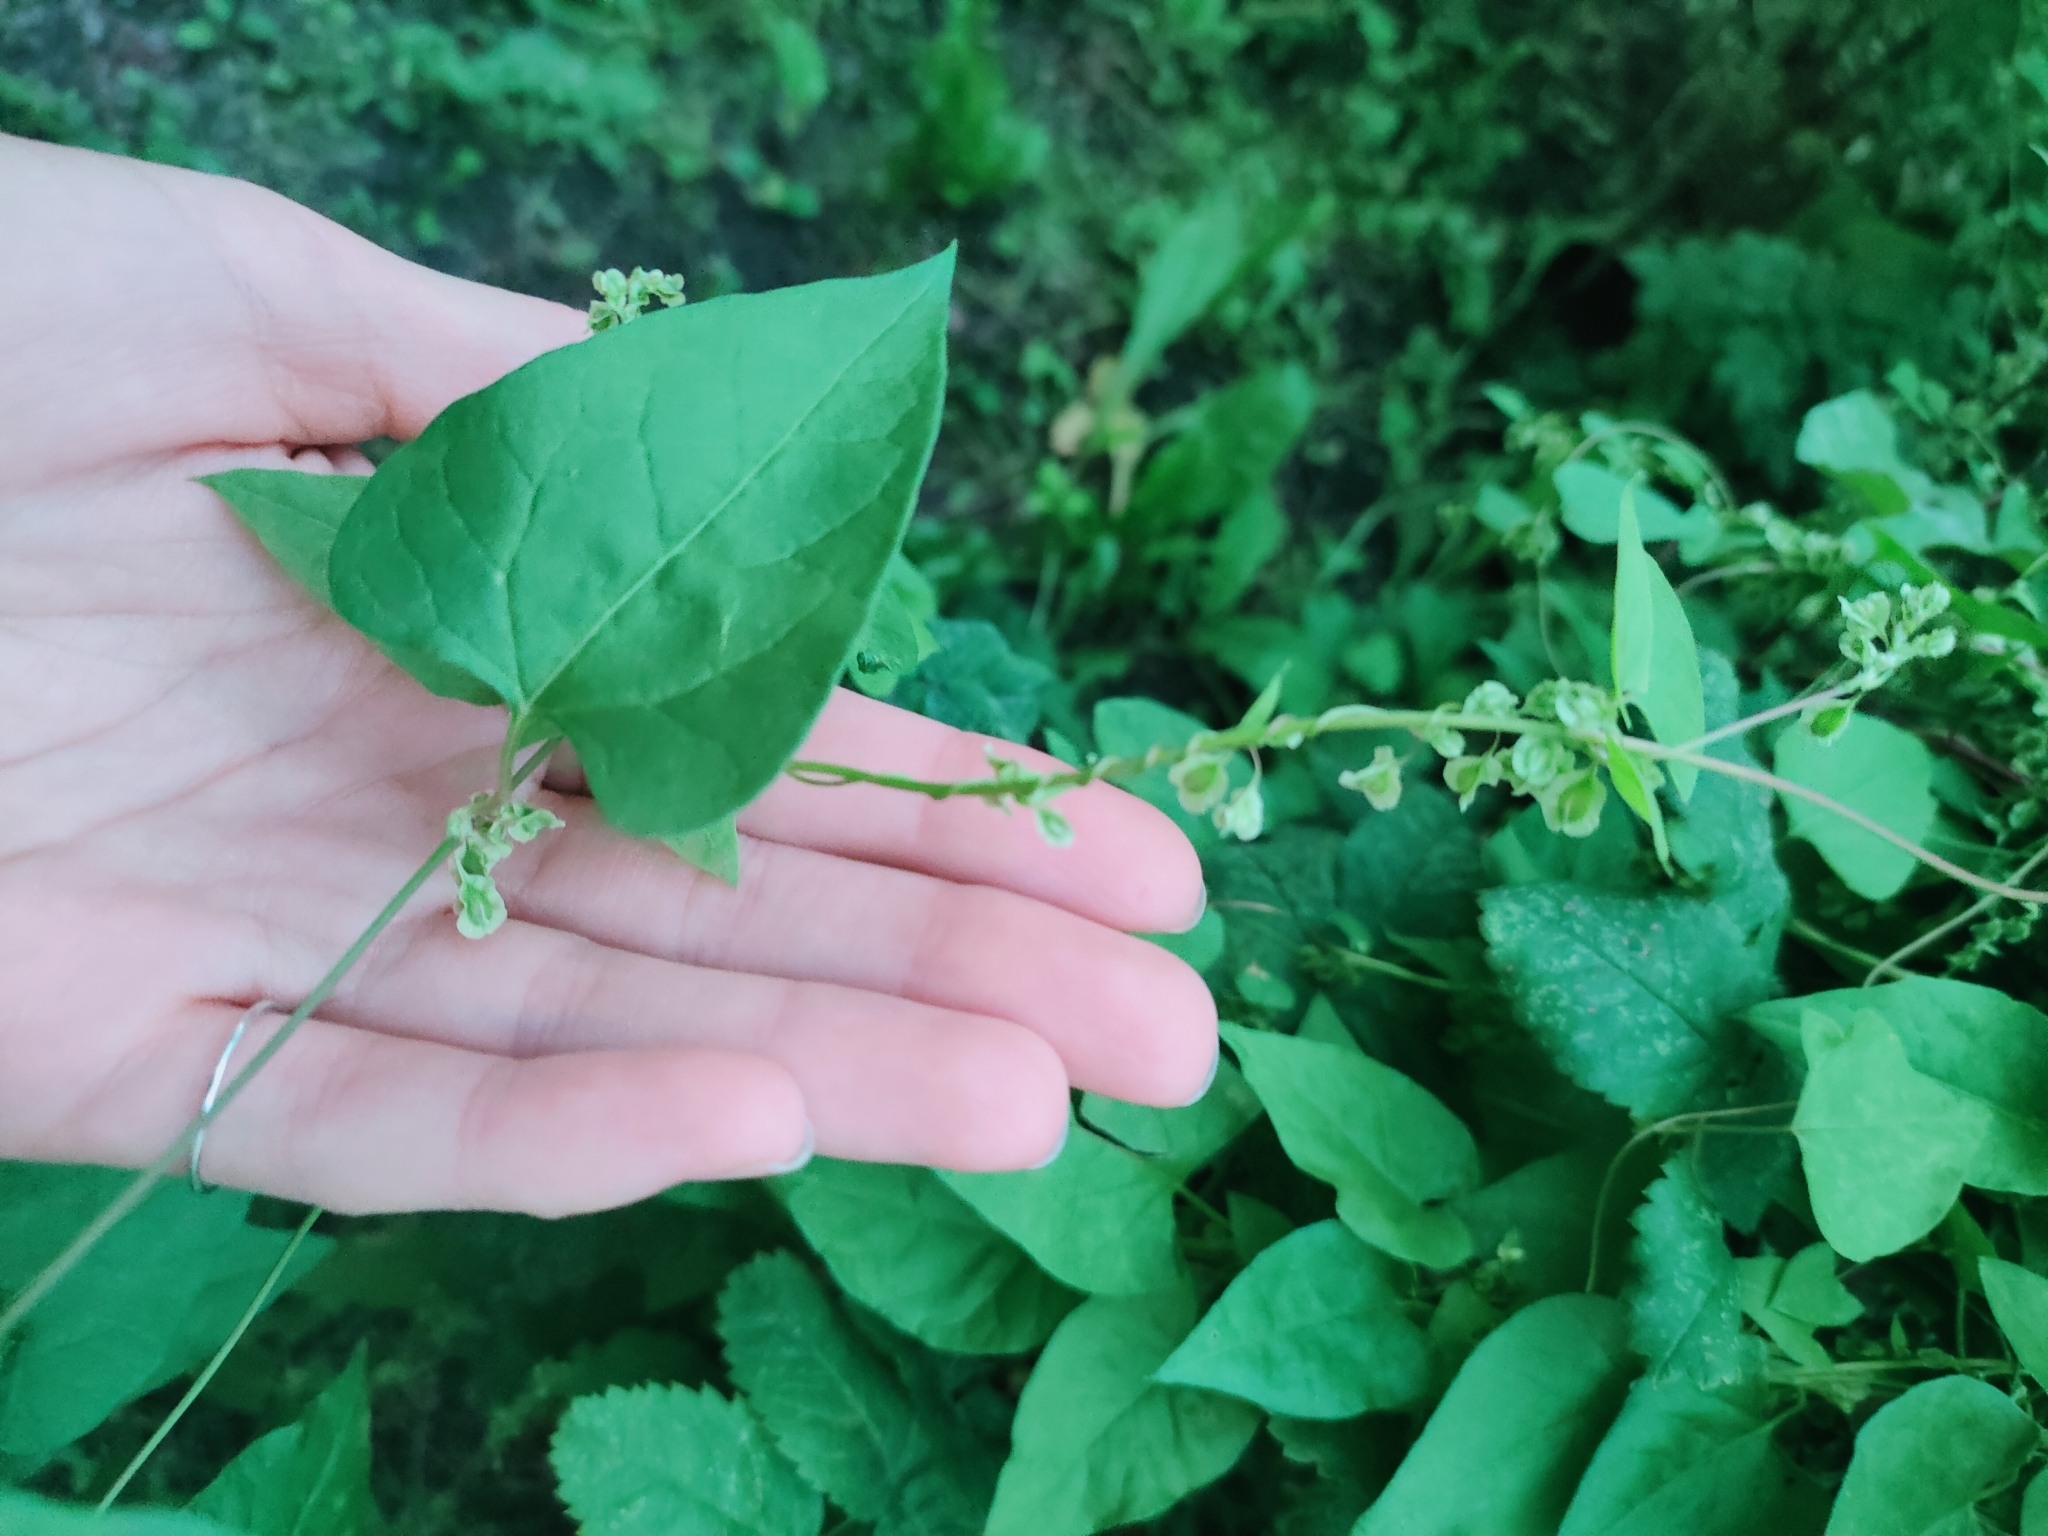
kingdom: Plantae
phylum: Tracheophyta
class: Magnoliopsida
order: Caryophyllales
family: Polygonaceae
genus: Fallopia
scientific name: Fallopia dumetorum
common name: Copse-bindweed
